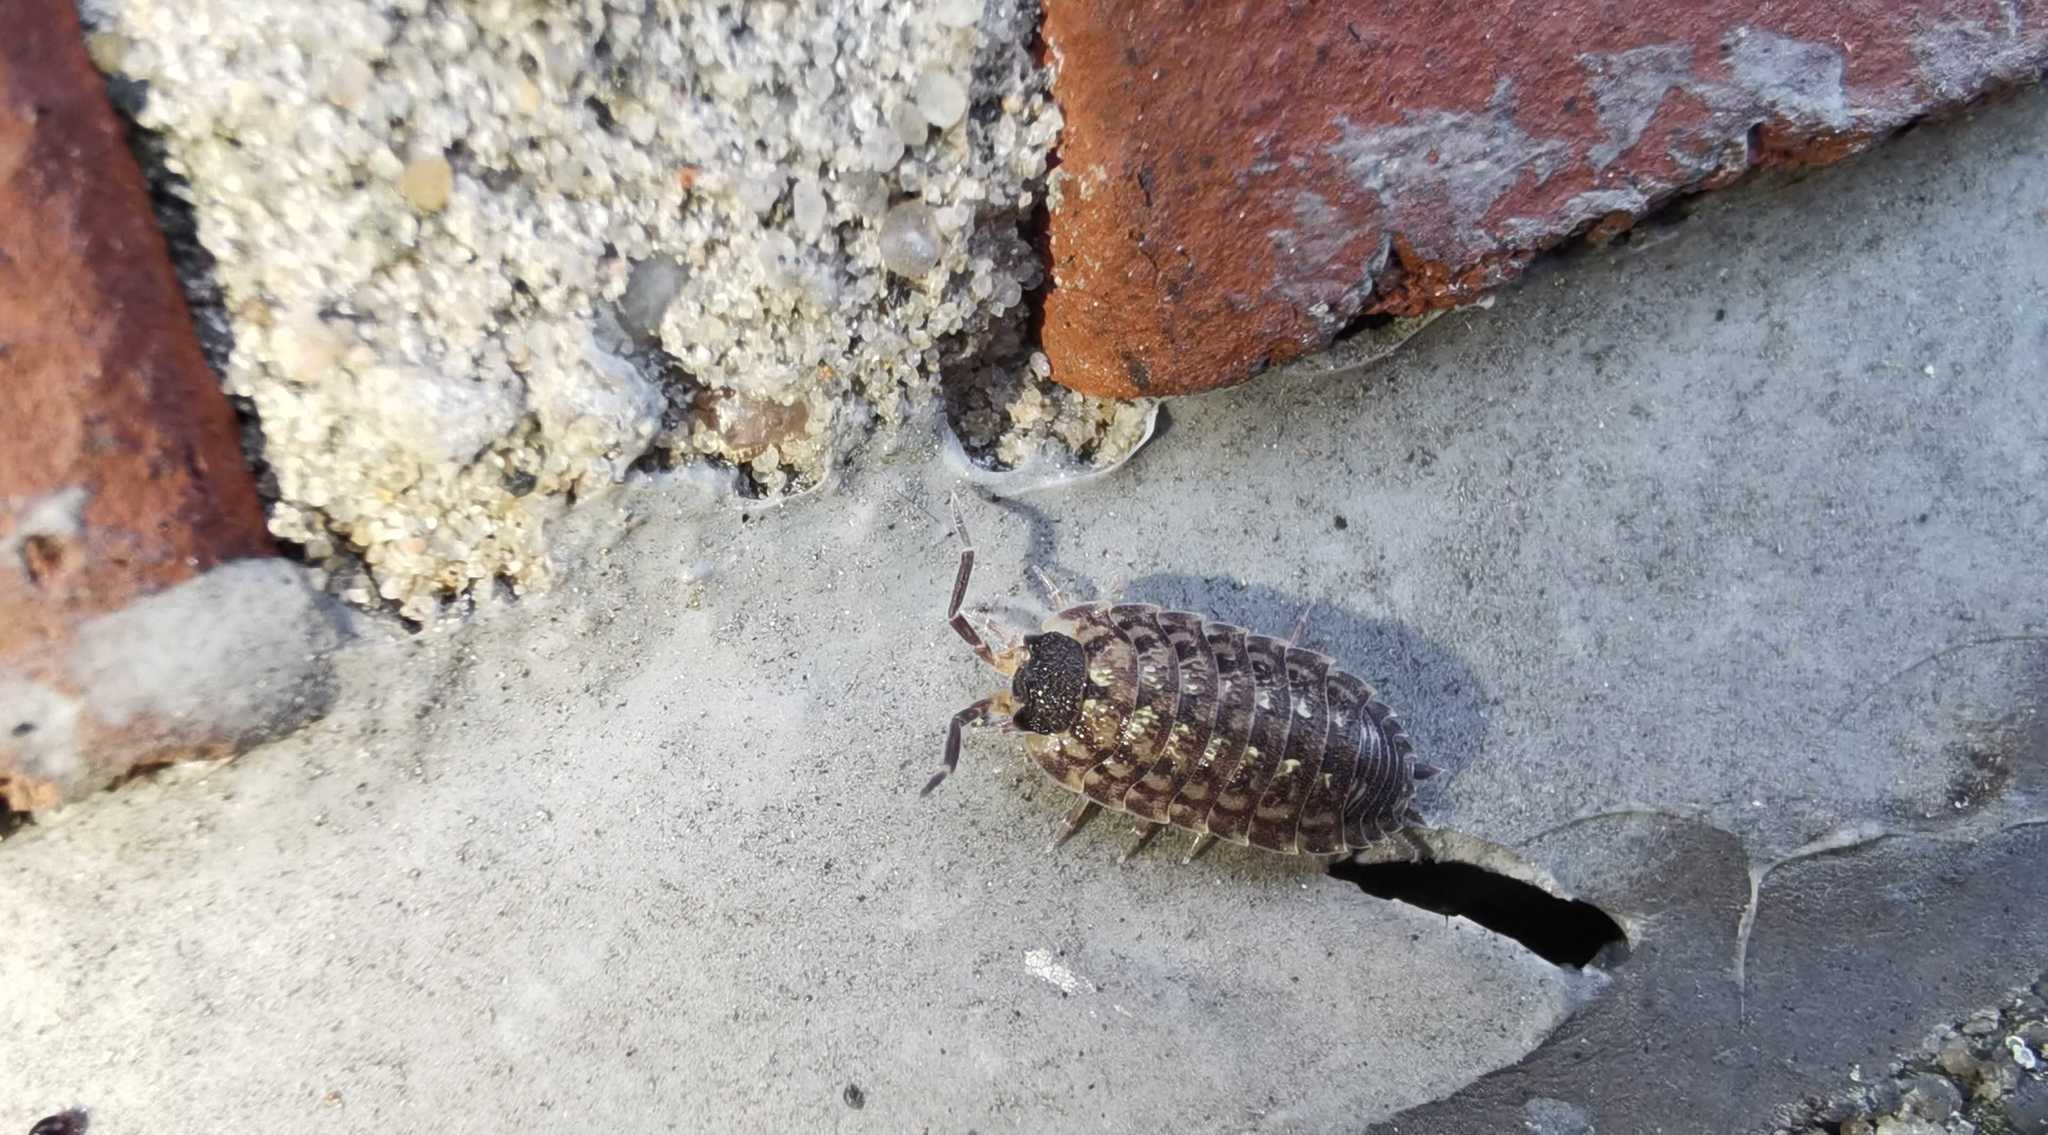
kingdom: Animalia
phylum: Arthropoda
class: Malacostraca
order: Isopoda
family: Porcellionidae
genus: Porcellio
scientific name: Porcellio spinicornis
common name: Painted woodlouse
